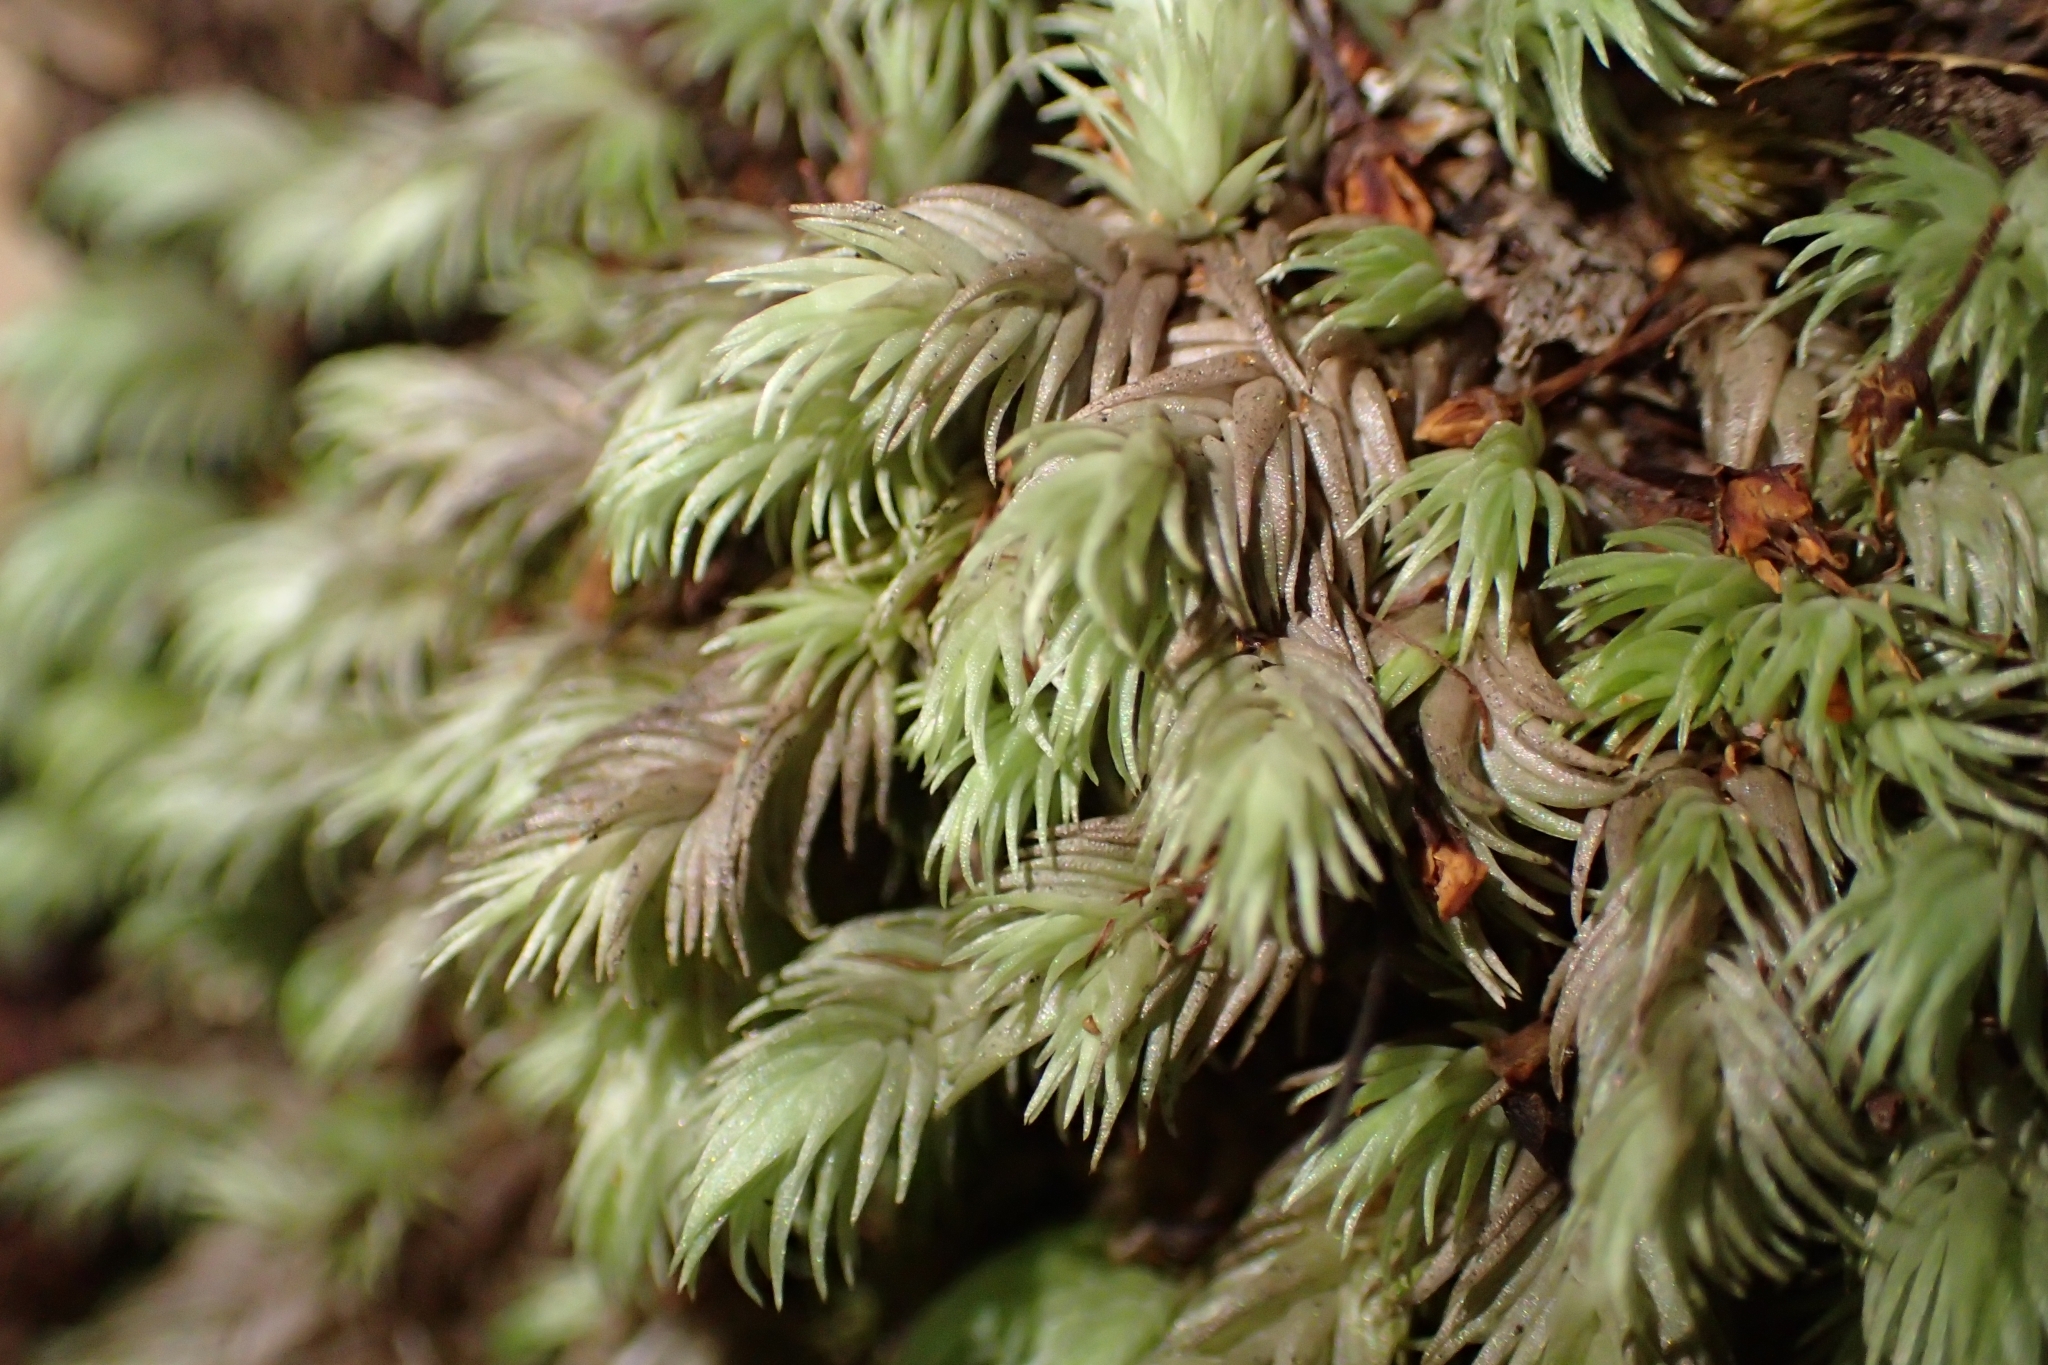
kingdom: Plantae
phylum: Bryophyta
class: Bryopsida
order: Dicranales
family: Leucobryaceae
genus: Leucobryum
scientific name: Leucobryum javense
